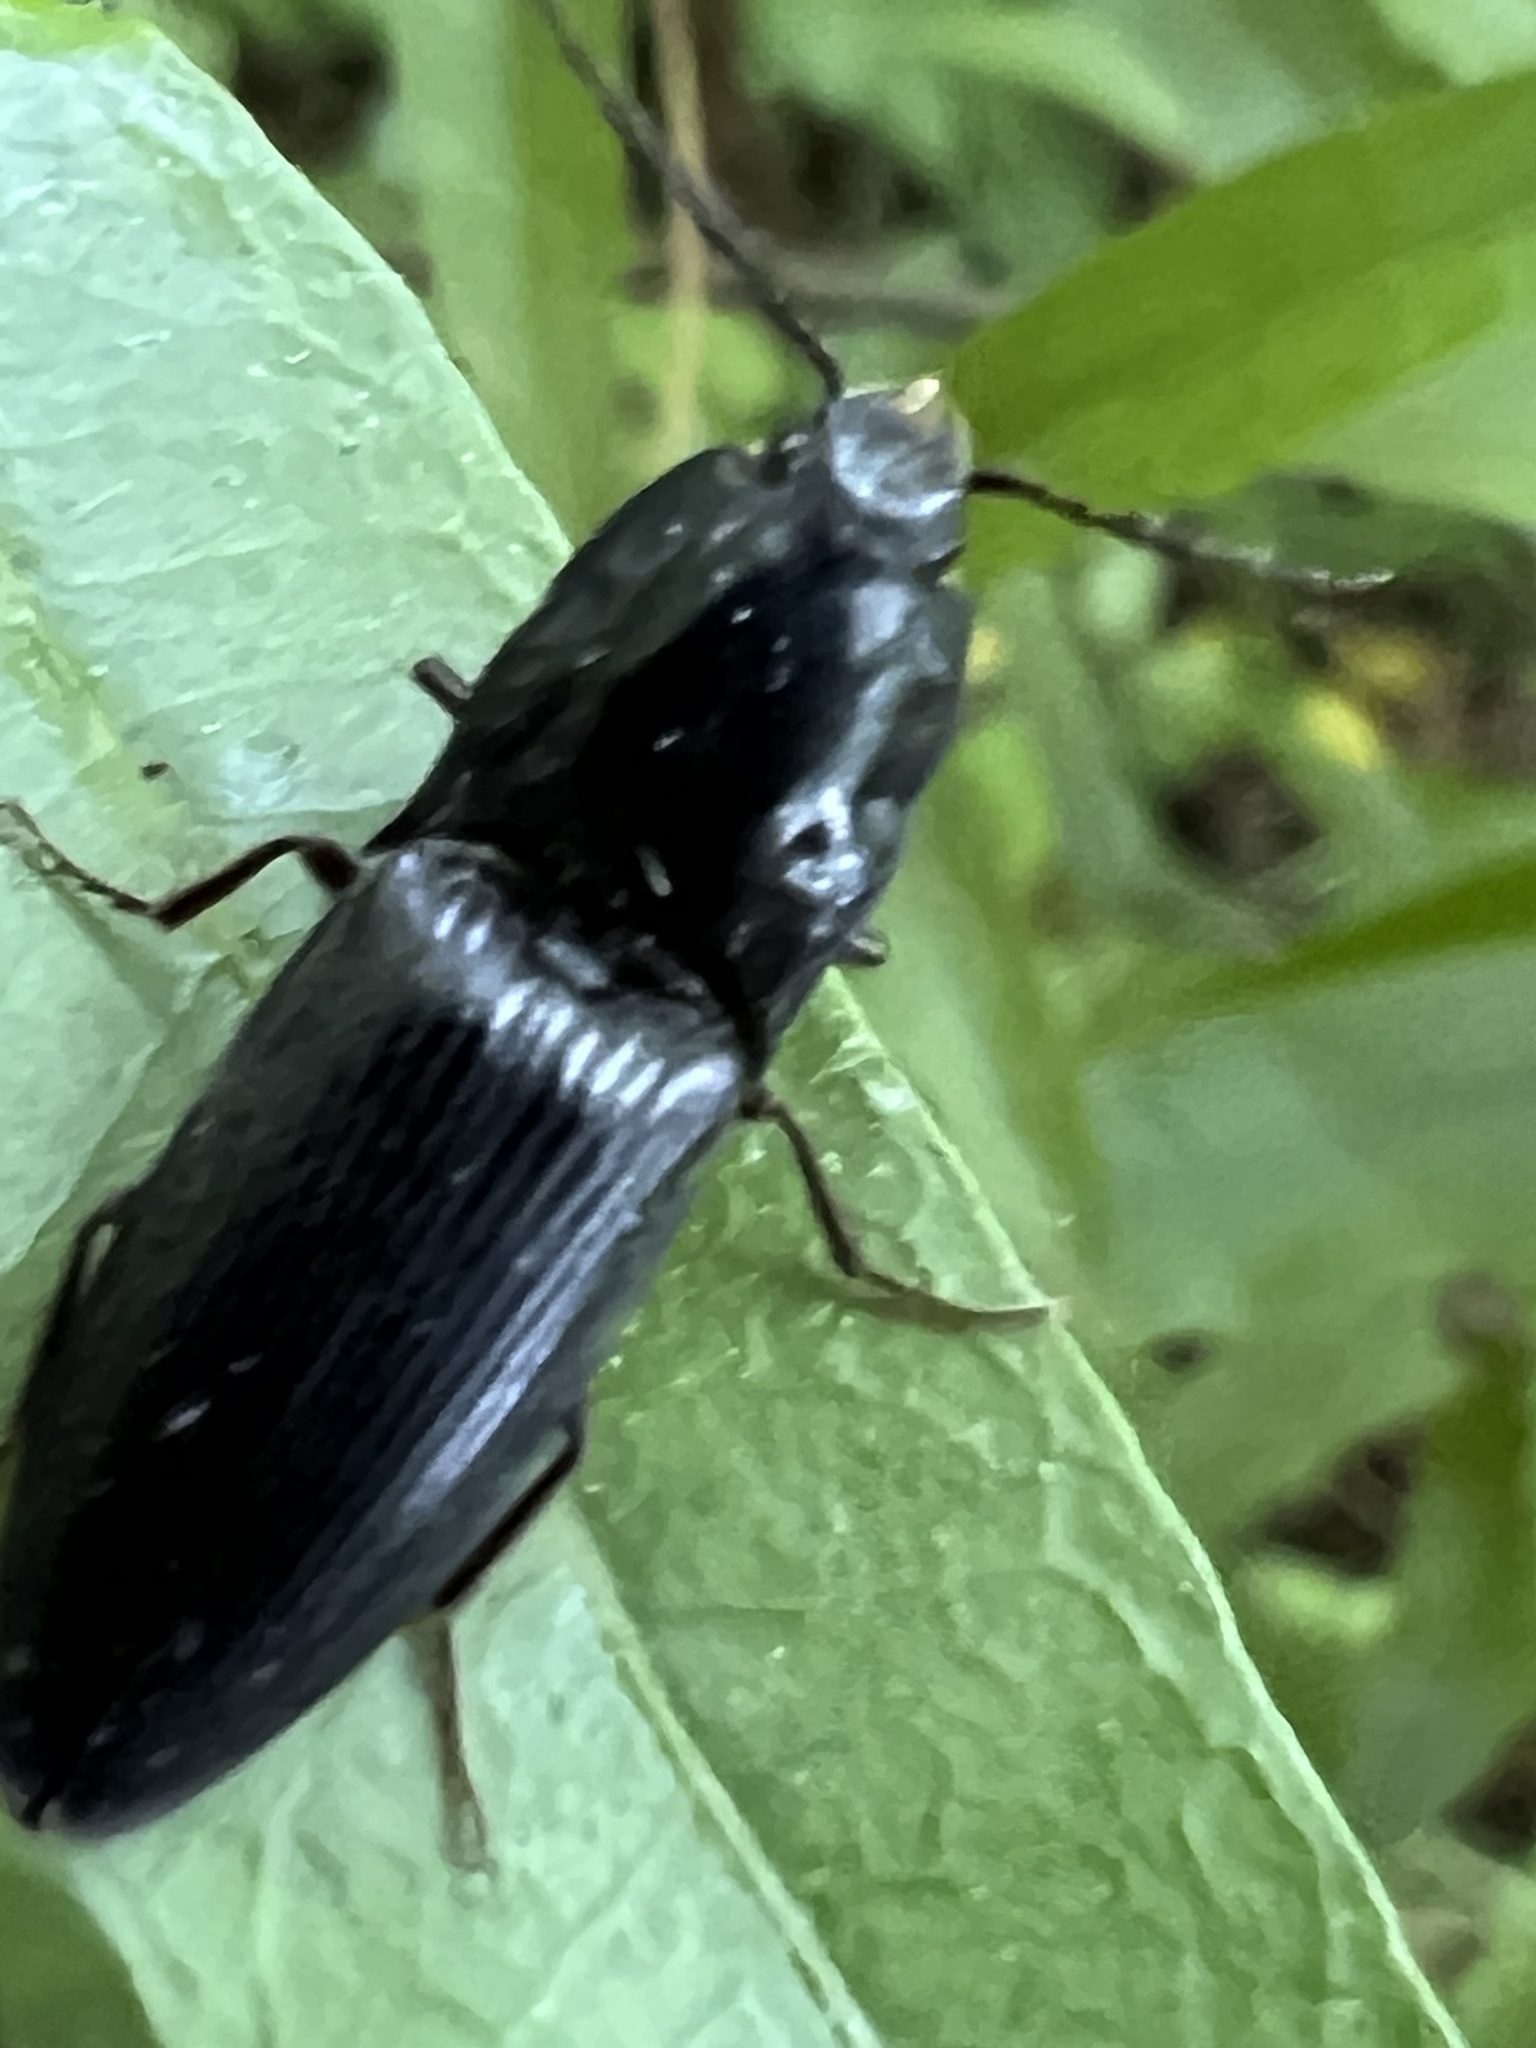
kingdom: Animalia
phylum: Arthropoda
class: Insecta
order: Coleoptera
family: Elateridae
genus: Neopristilophus
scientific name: Neopristilophus
